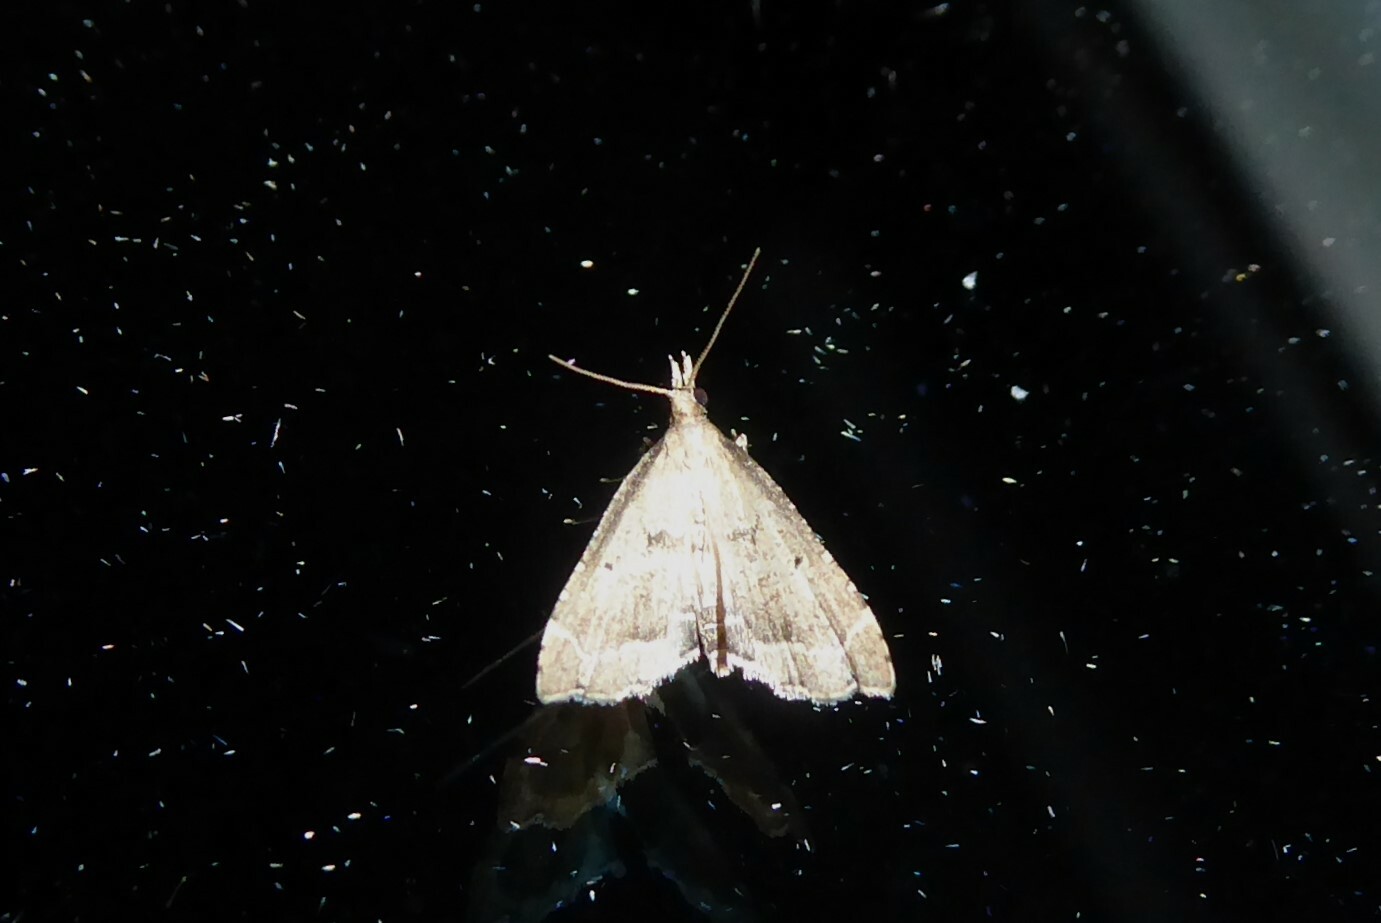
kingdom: Animalia
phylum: Arthropoda
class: Insecta
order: Lepidoptera
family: Crambidae
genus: Diplopseustis
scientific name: Diplopseustis perieresalis
